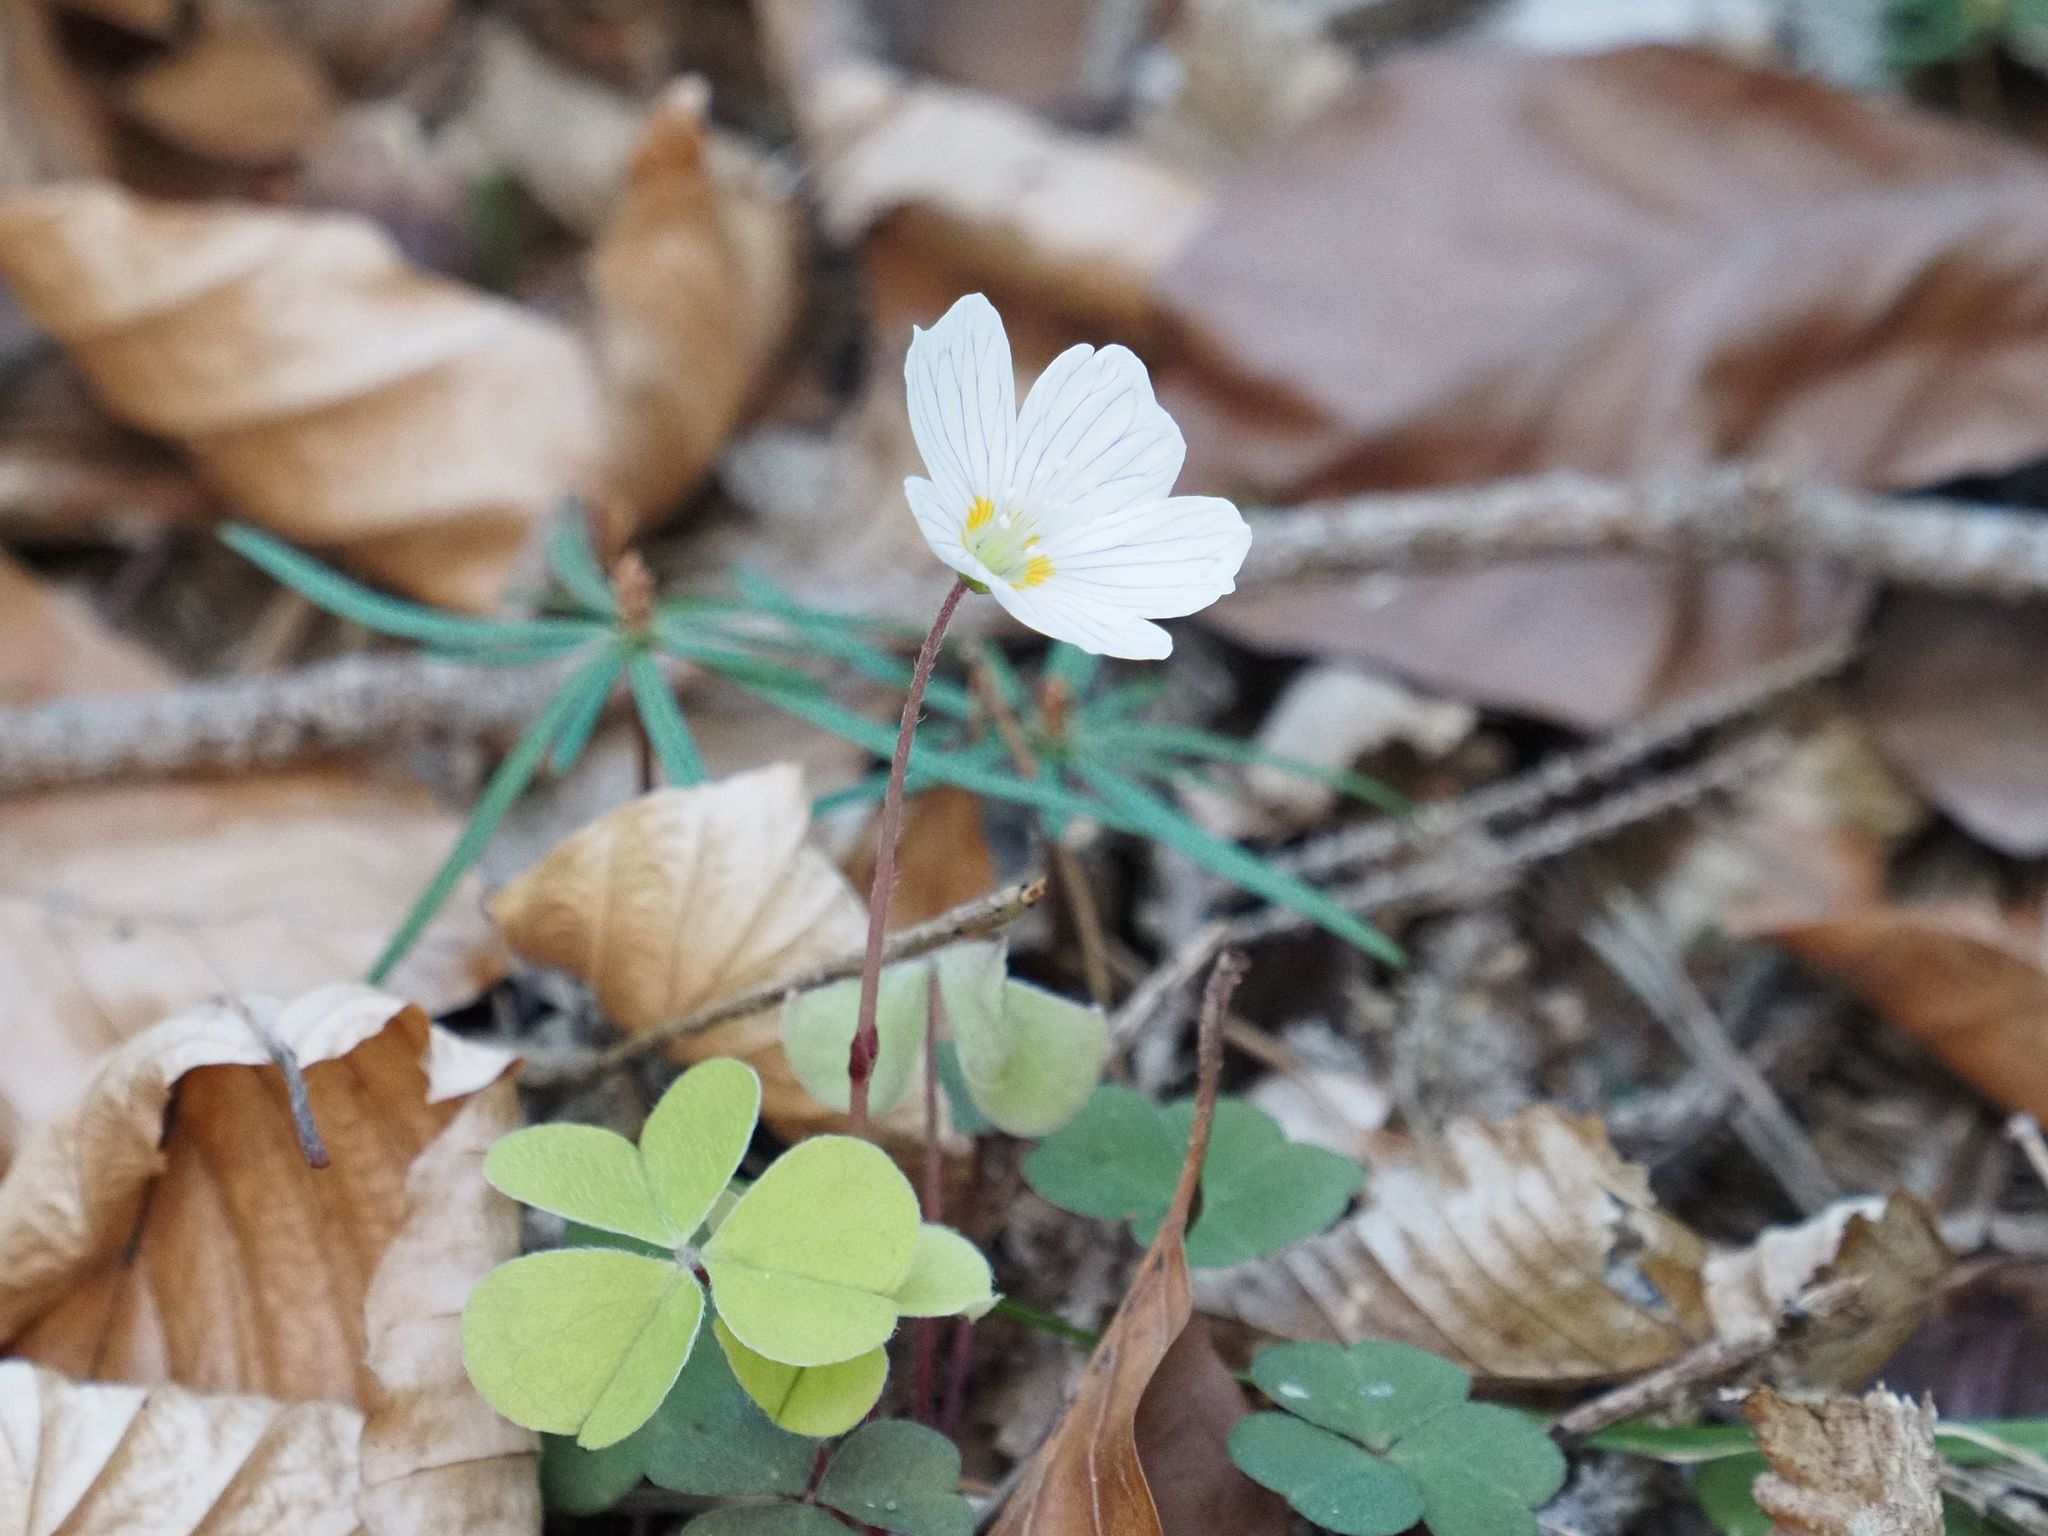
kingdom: Plantae
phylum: Tracheophyta
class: Magnoliopsida
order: Oxalidales
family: Oxalidaceae
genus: Oxalis
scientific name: Oxalis acetosella
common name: Wood-sorrel
